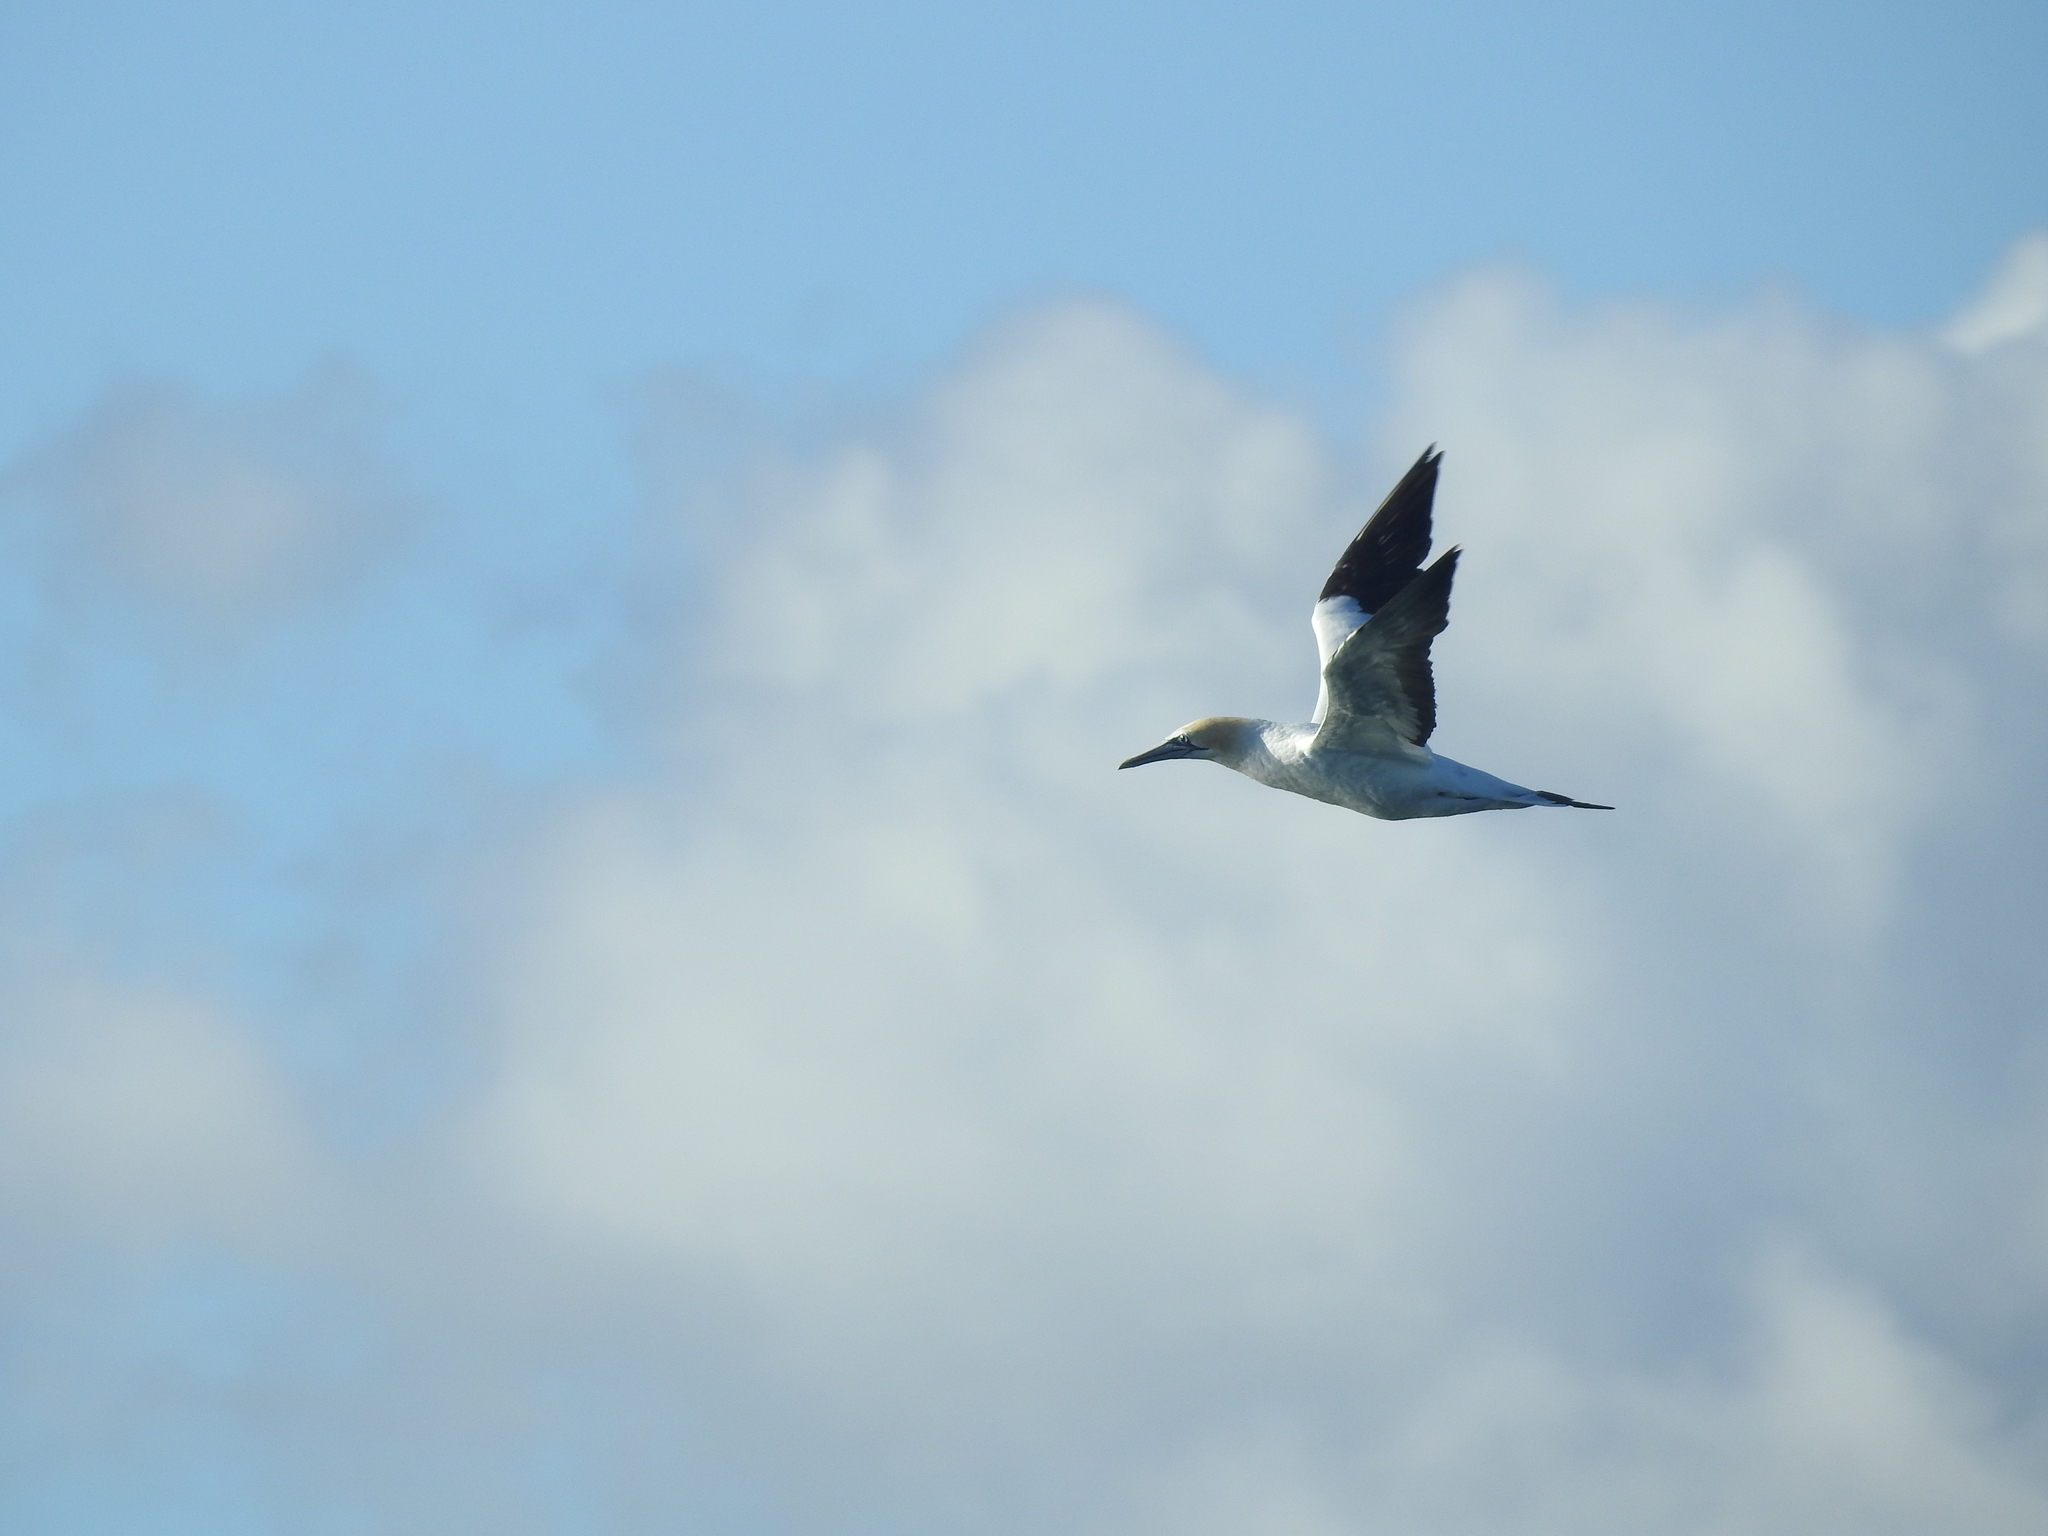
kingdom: Animalia
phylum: Chordata
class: Aves
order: Suliformes
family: Sulidae
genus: Morus
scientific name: Morus serrator
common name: Australasian gannet
